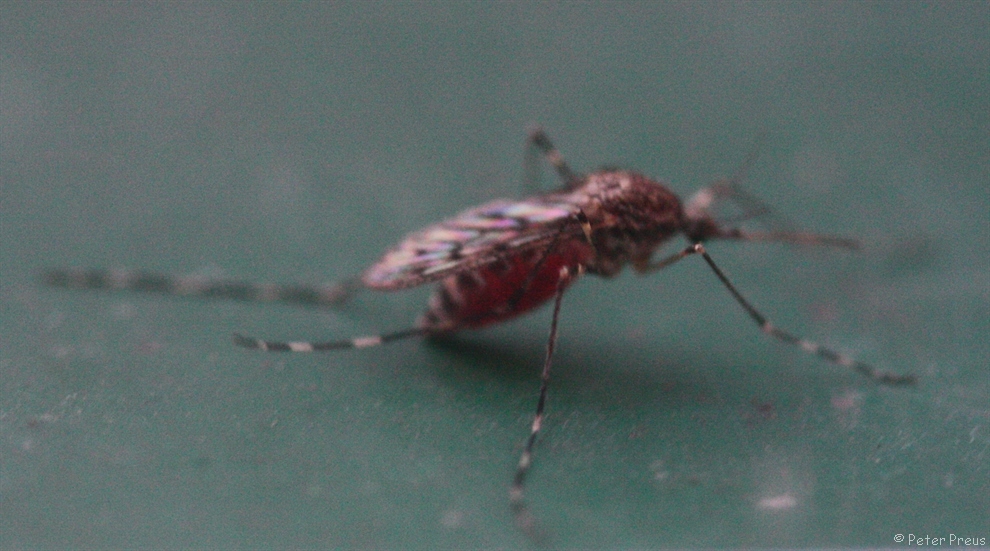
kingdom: Animalia
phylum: Arthropoda
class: Insecta
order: Diptera
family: Culicidae
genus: Culiseta
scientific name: Culiseta annulata
